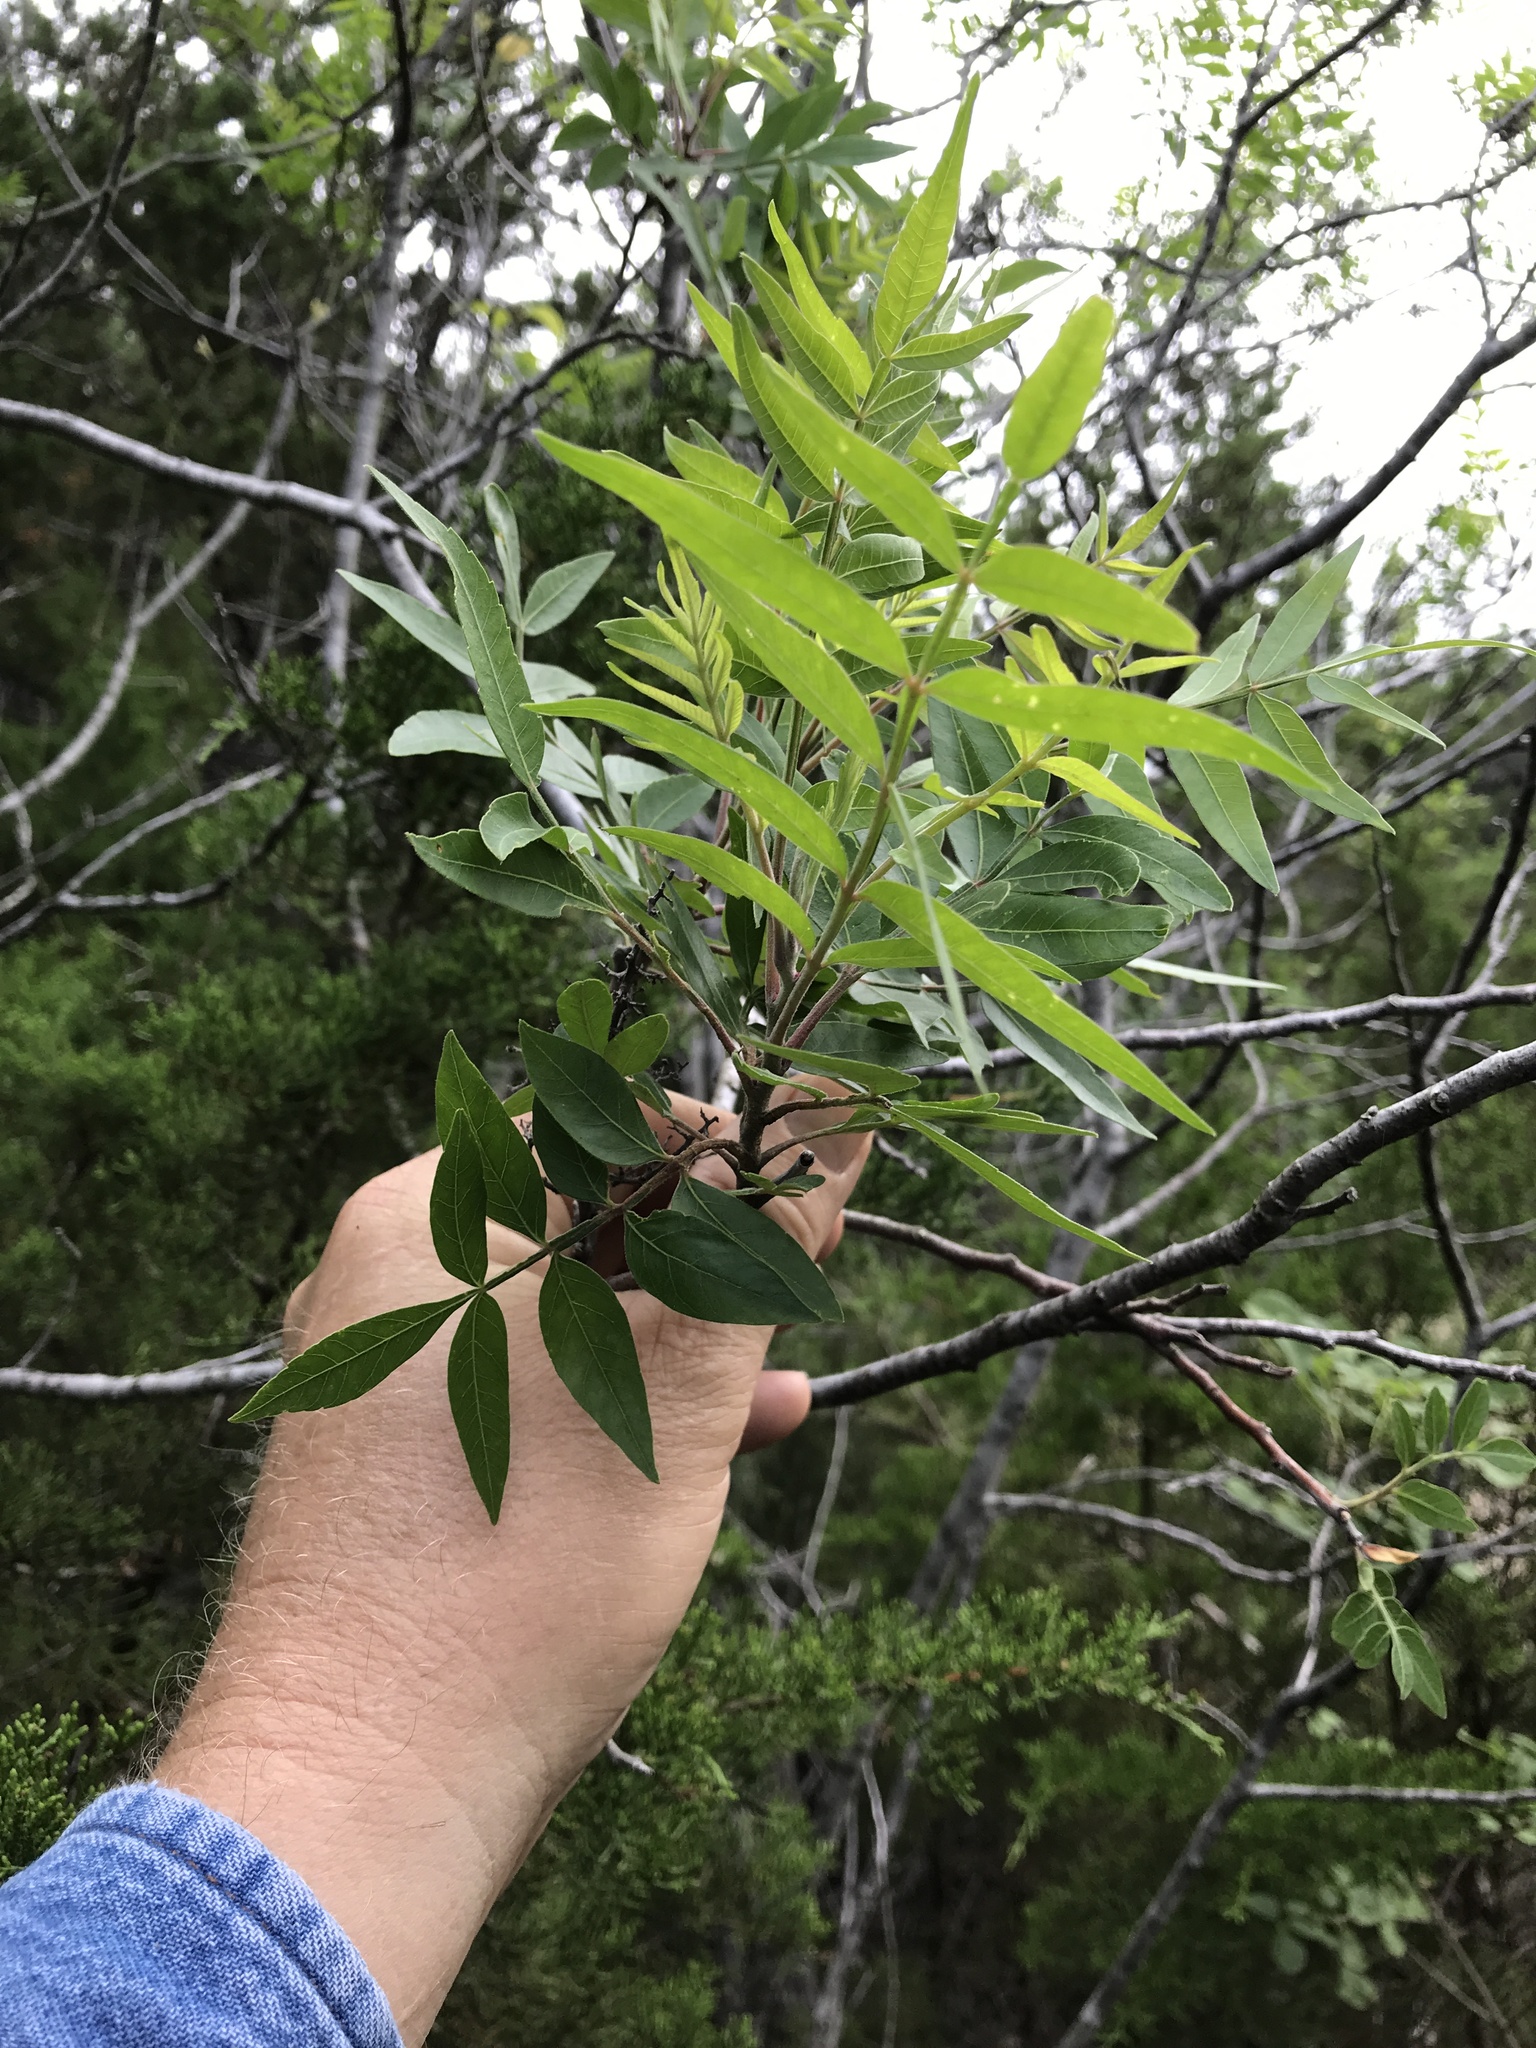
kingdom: Plantae
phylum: Tracheophyta
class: Magnoliopsida
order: Sapindales
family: Anacardiaceae
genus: Rhus
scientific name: Rhus lanceolata
